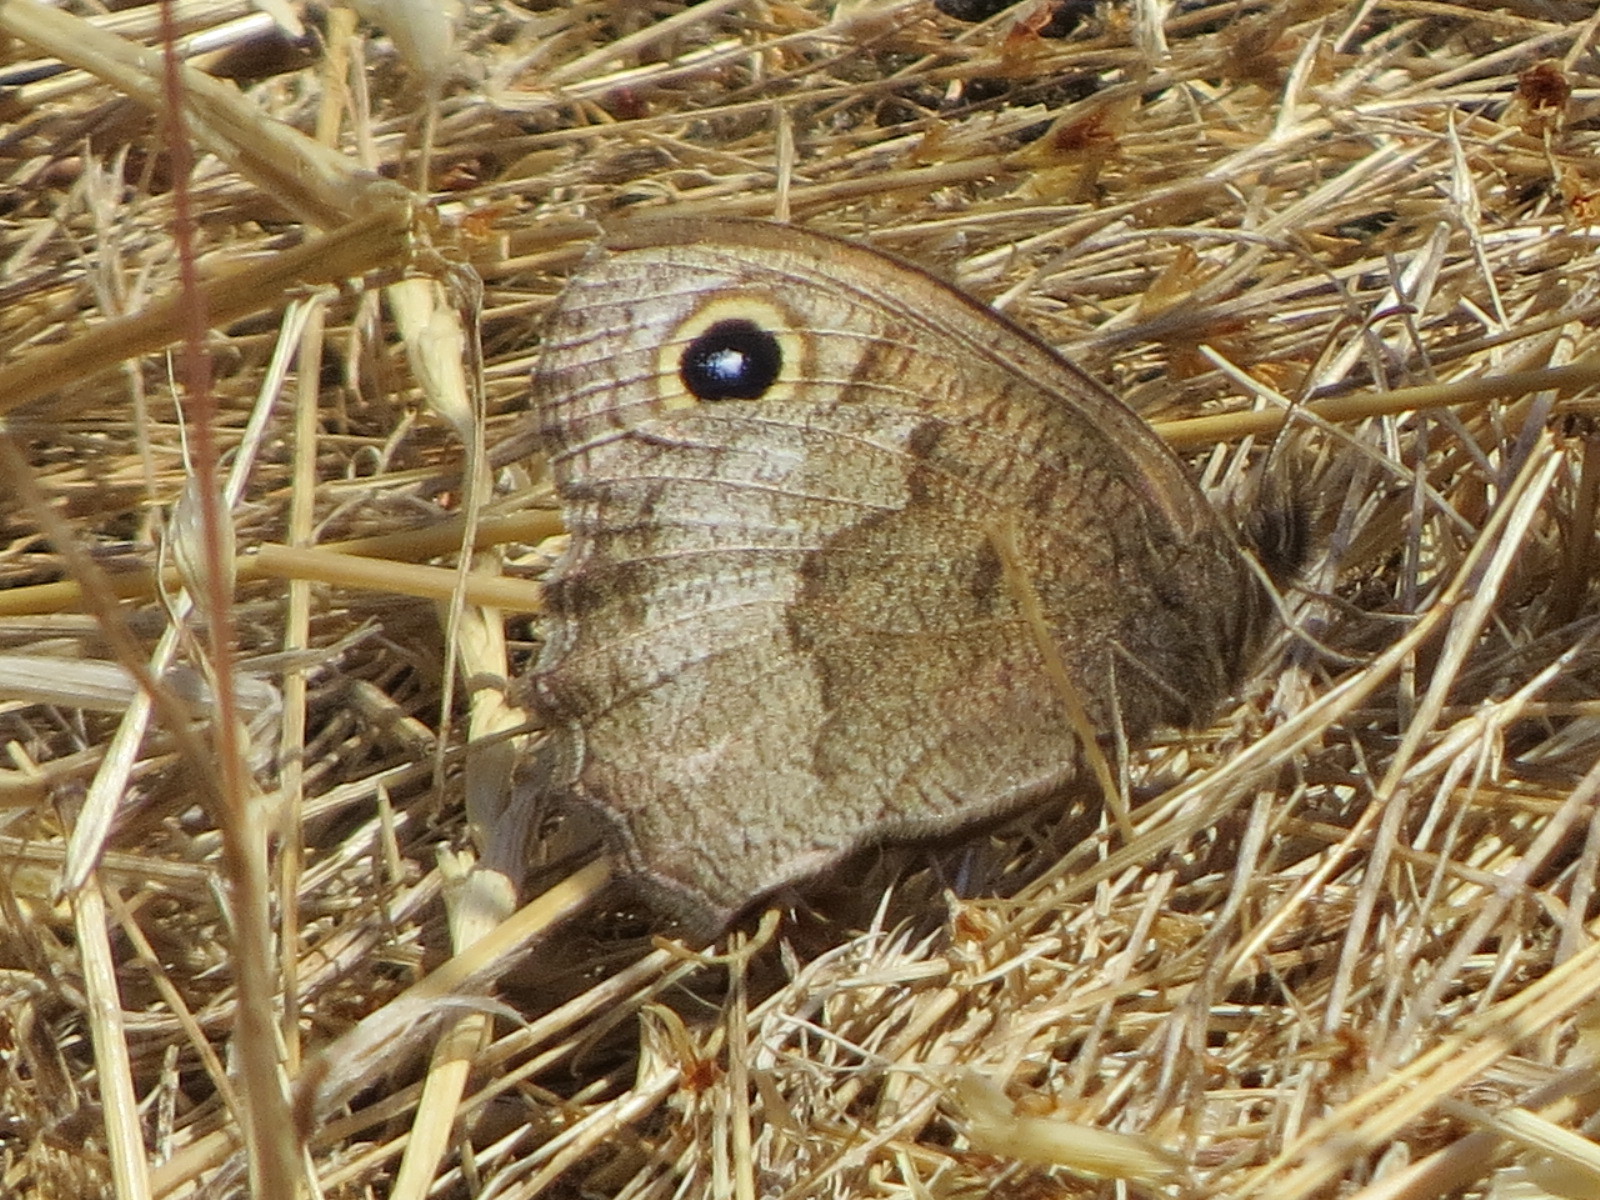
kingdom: Animalia
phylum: Arthropoda
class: Insecta
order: Lepidoptera
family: Nymphalidae
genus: Cercyonis
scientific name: Cercyonis pegala
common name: Common wood-nymph
